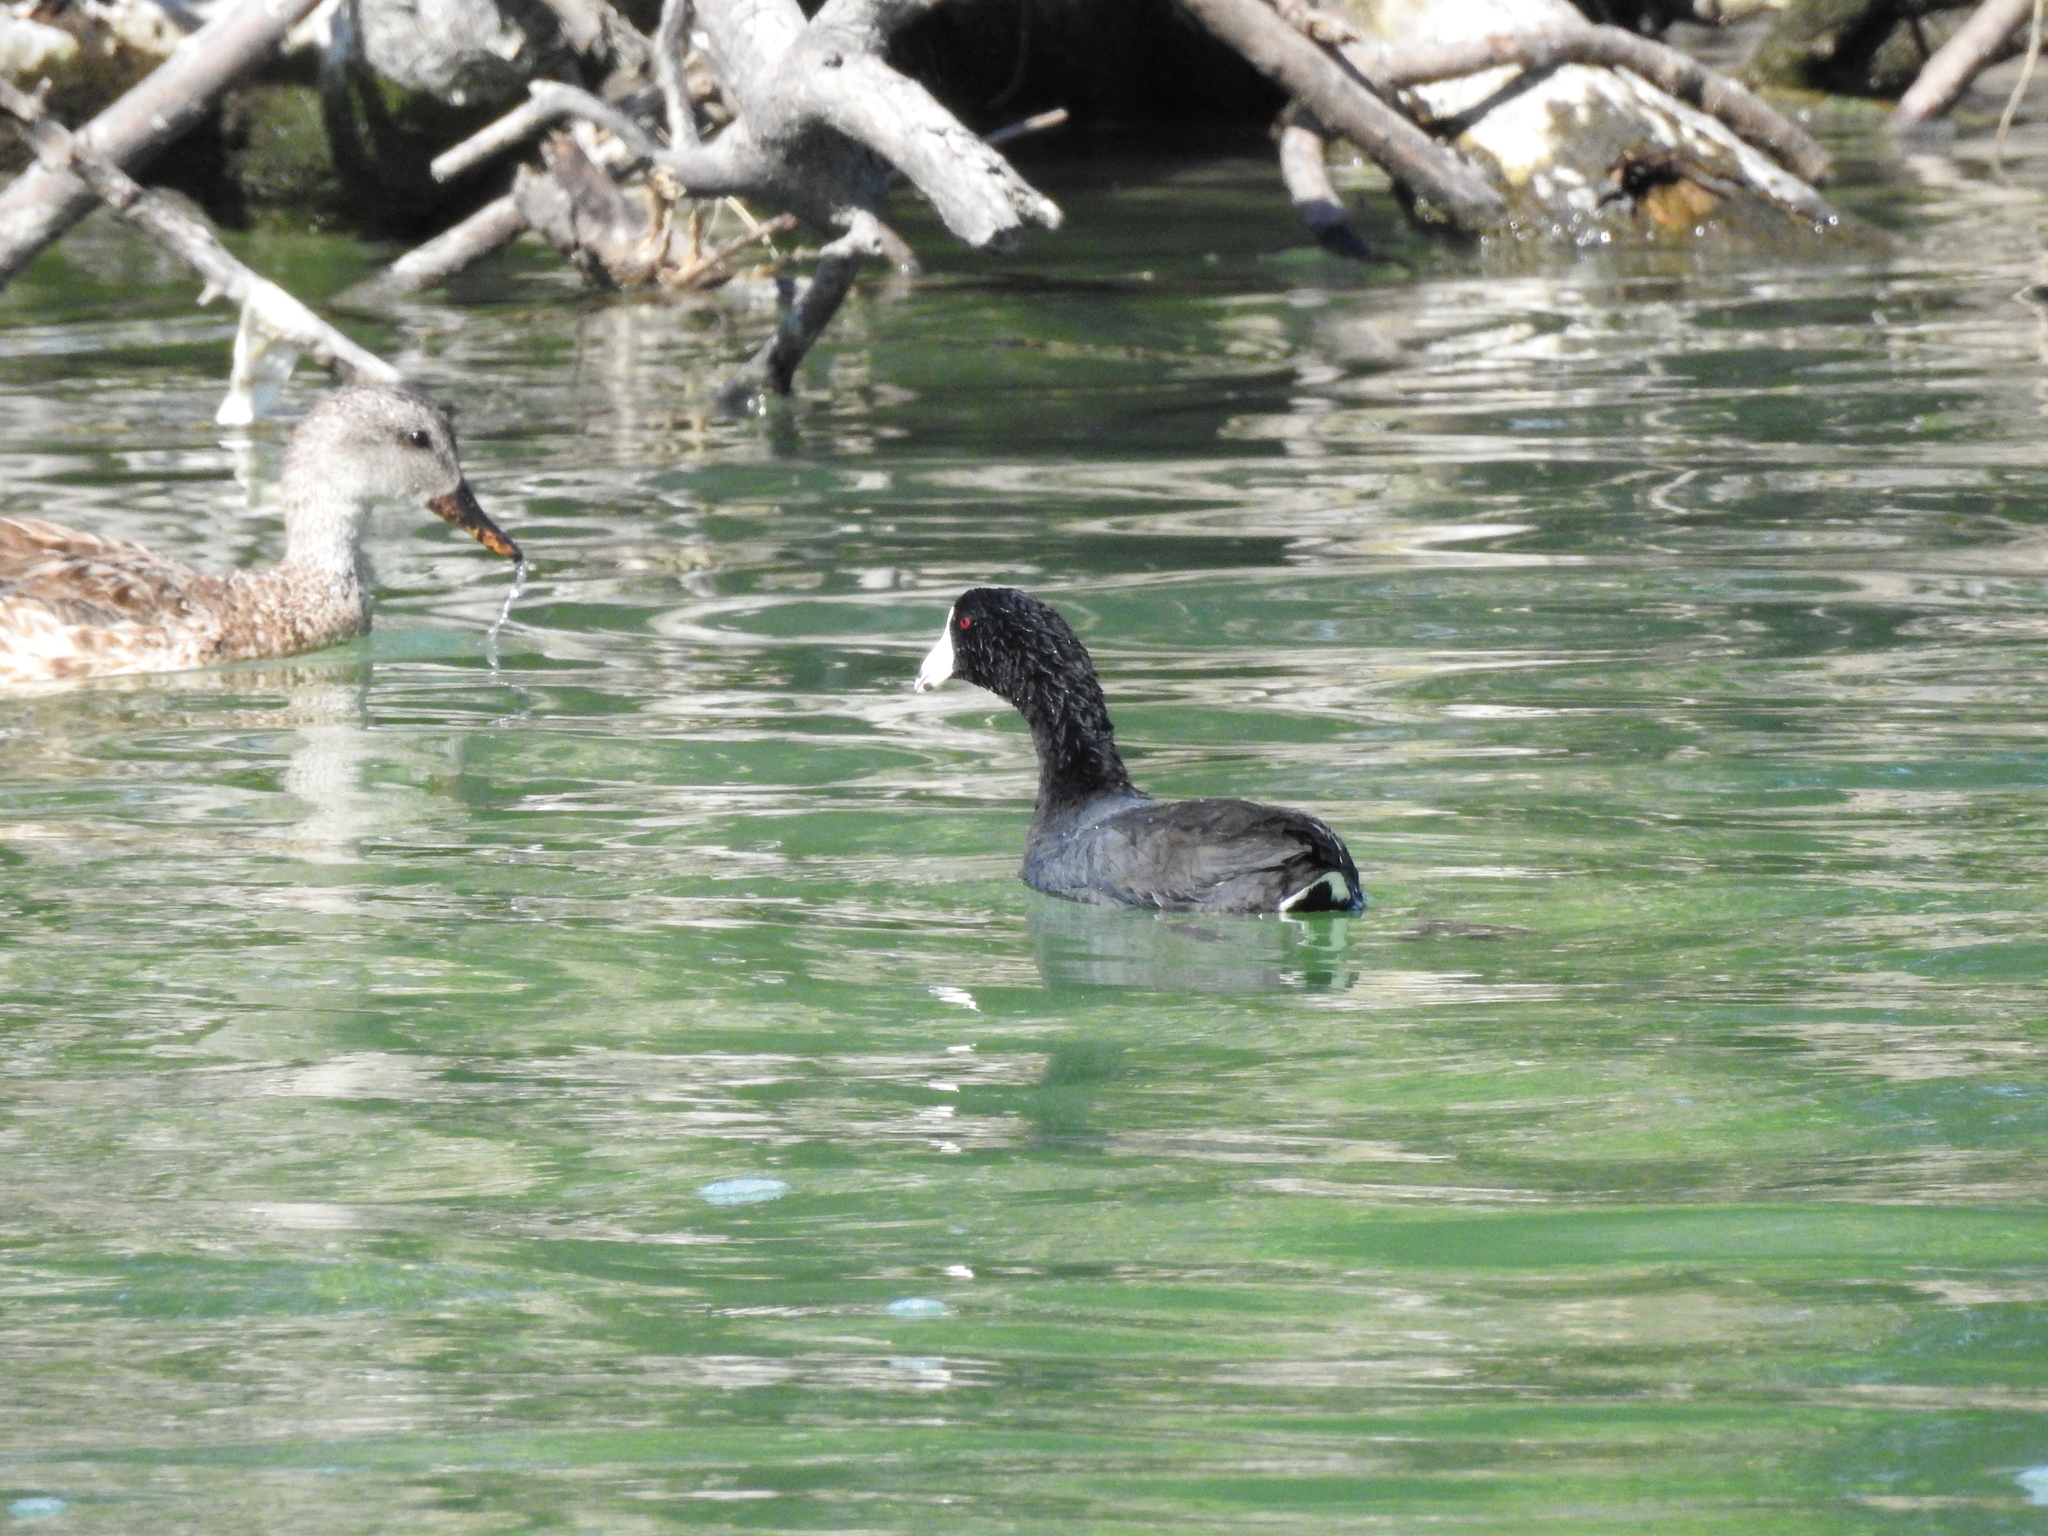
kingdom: Animalia
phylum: Chordata
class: Aves
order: Gruiformes
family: Rallidae
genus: Fulica
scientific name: Fulica americana
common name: American coot
